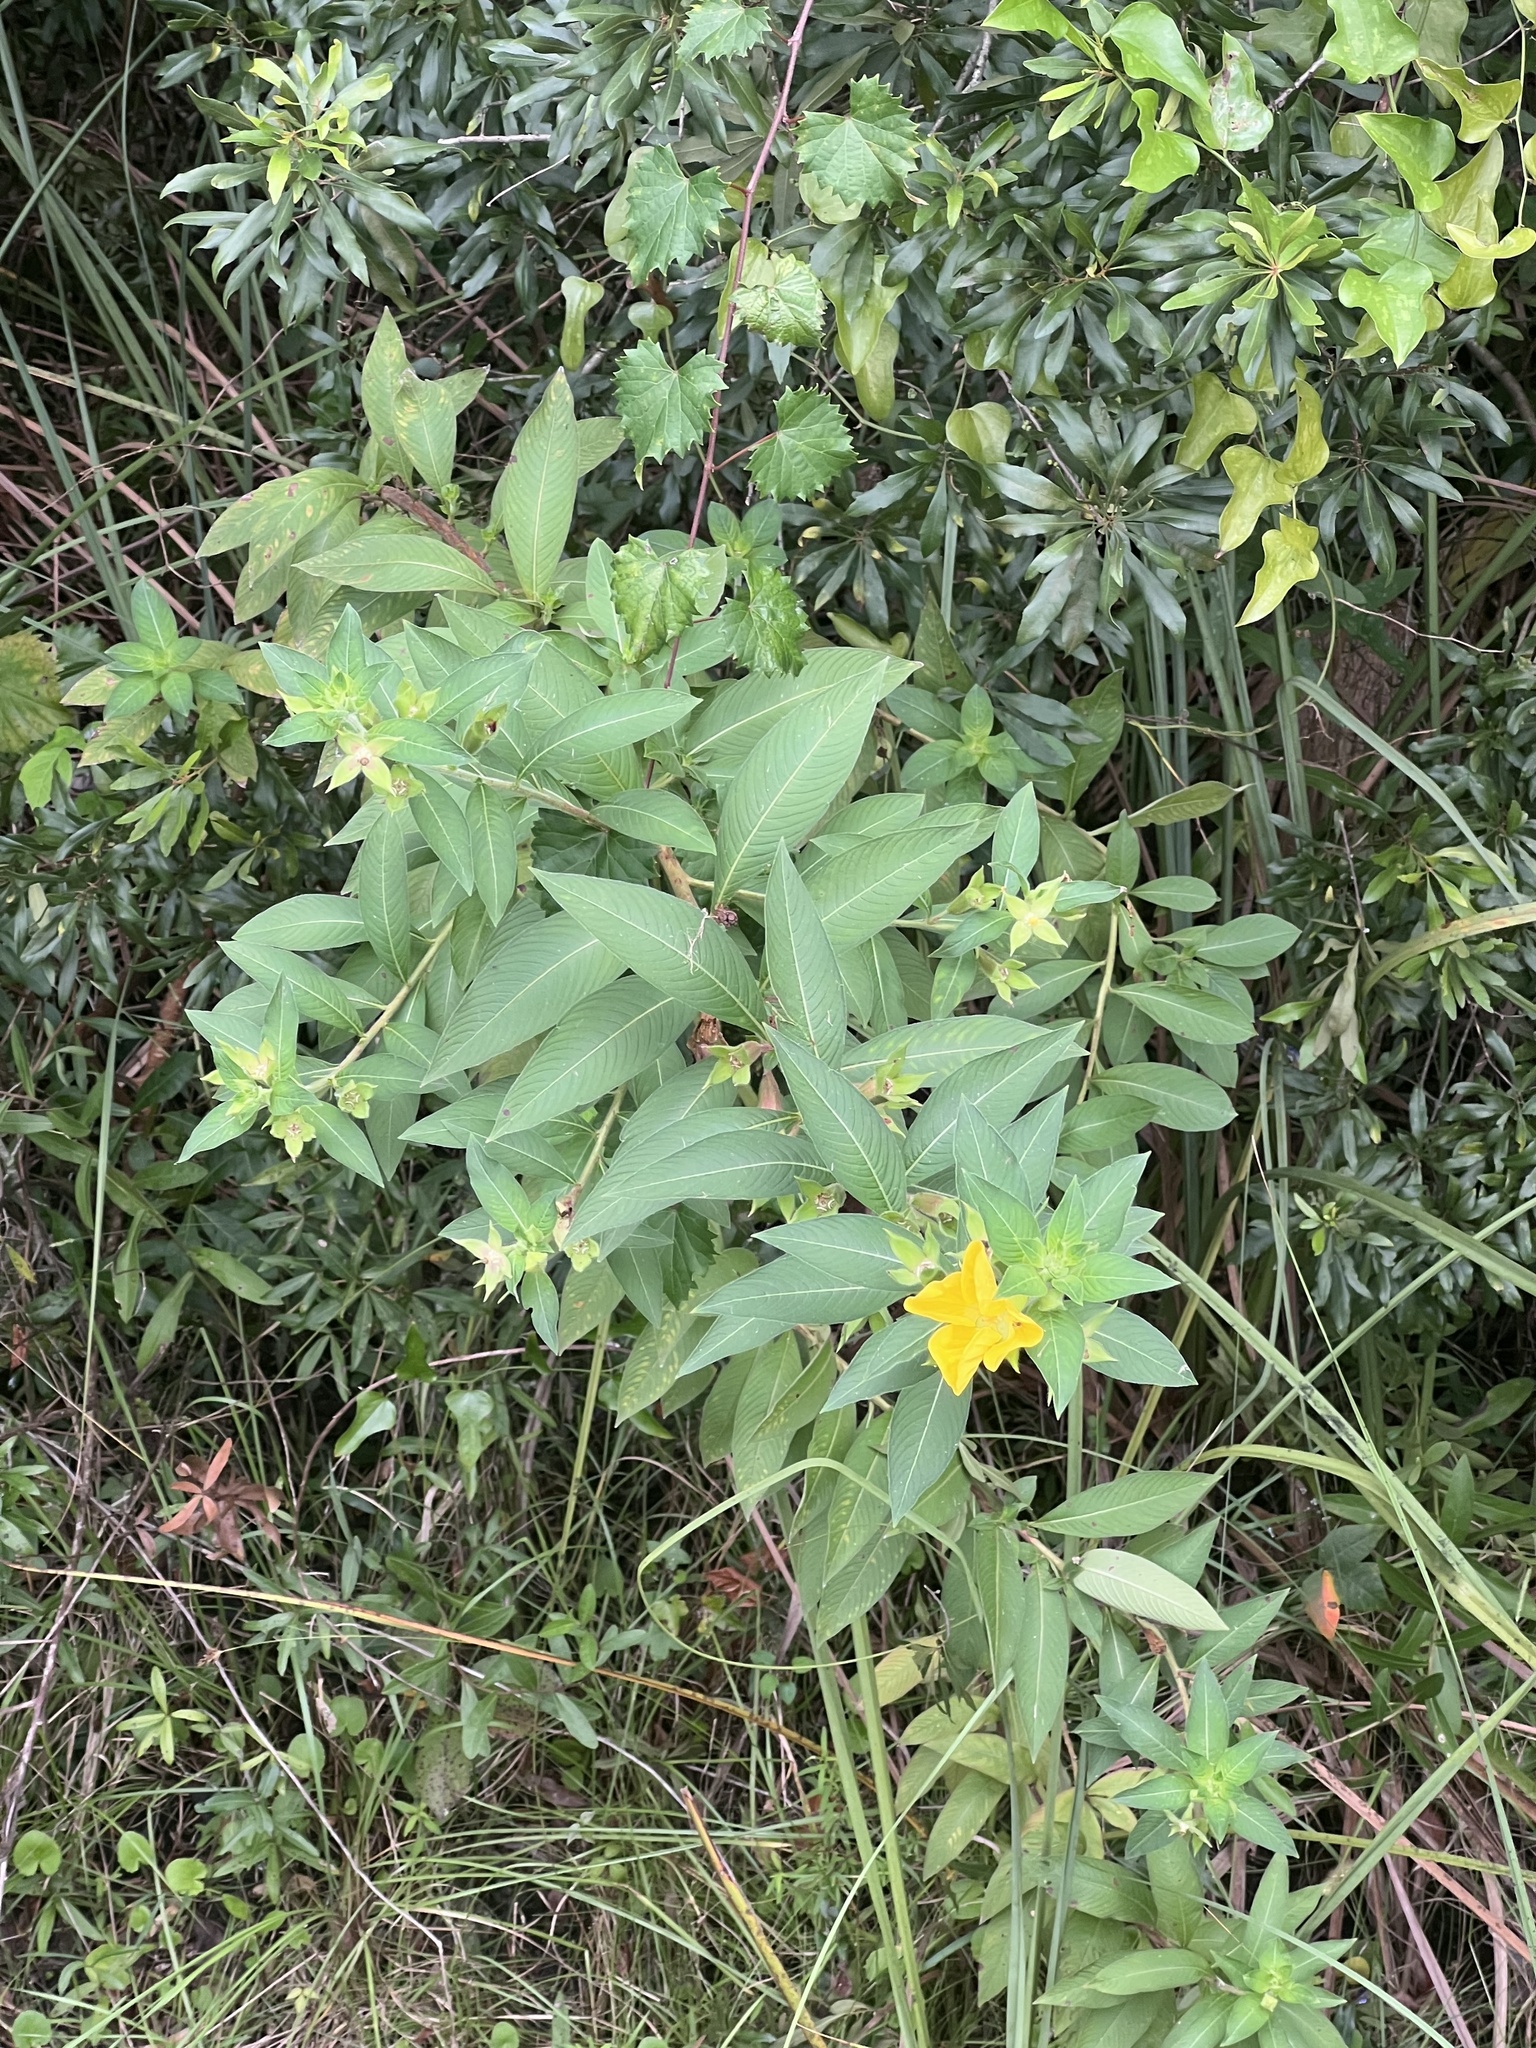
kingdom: Plantae
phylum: Tracheophyta
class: Magnoliopsida
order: Myrtales
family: Onagraceae
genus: Ludwigia
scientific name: Ludwigia peruviana
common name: Peruvian primrose-willow
